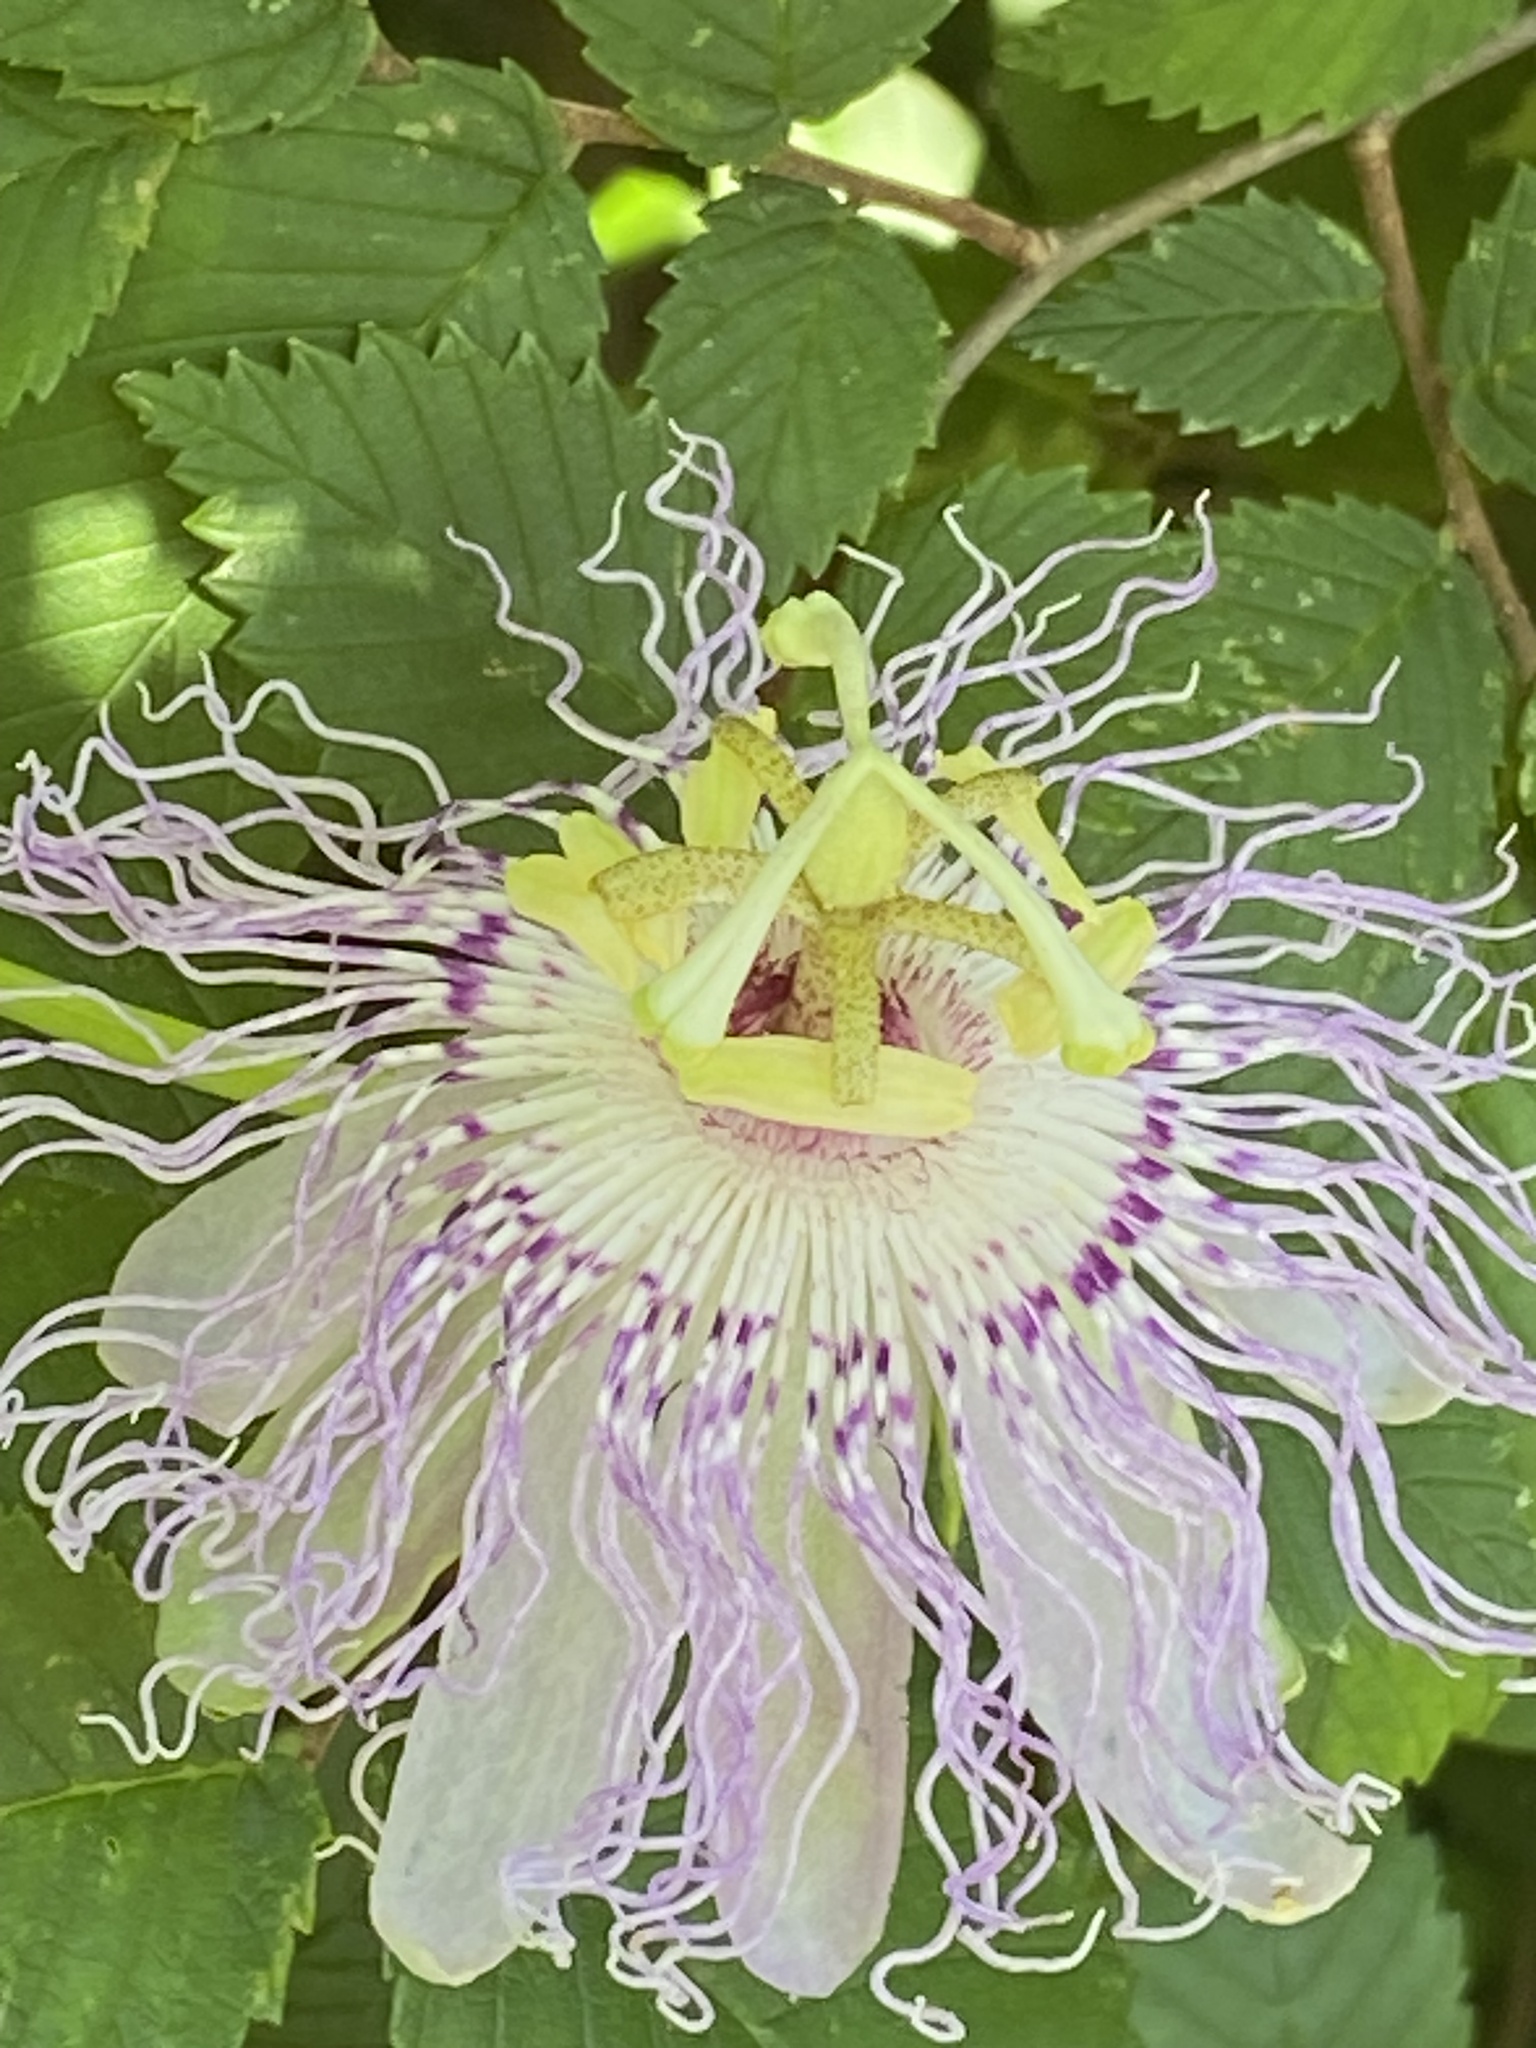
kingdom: Plantae
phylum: Tracheophyta
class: Magnoliopsida
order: Malpighiales
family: Passifloraceae
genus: Passiflora
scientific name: Passiflora incarnata
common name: Apricot-vine
